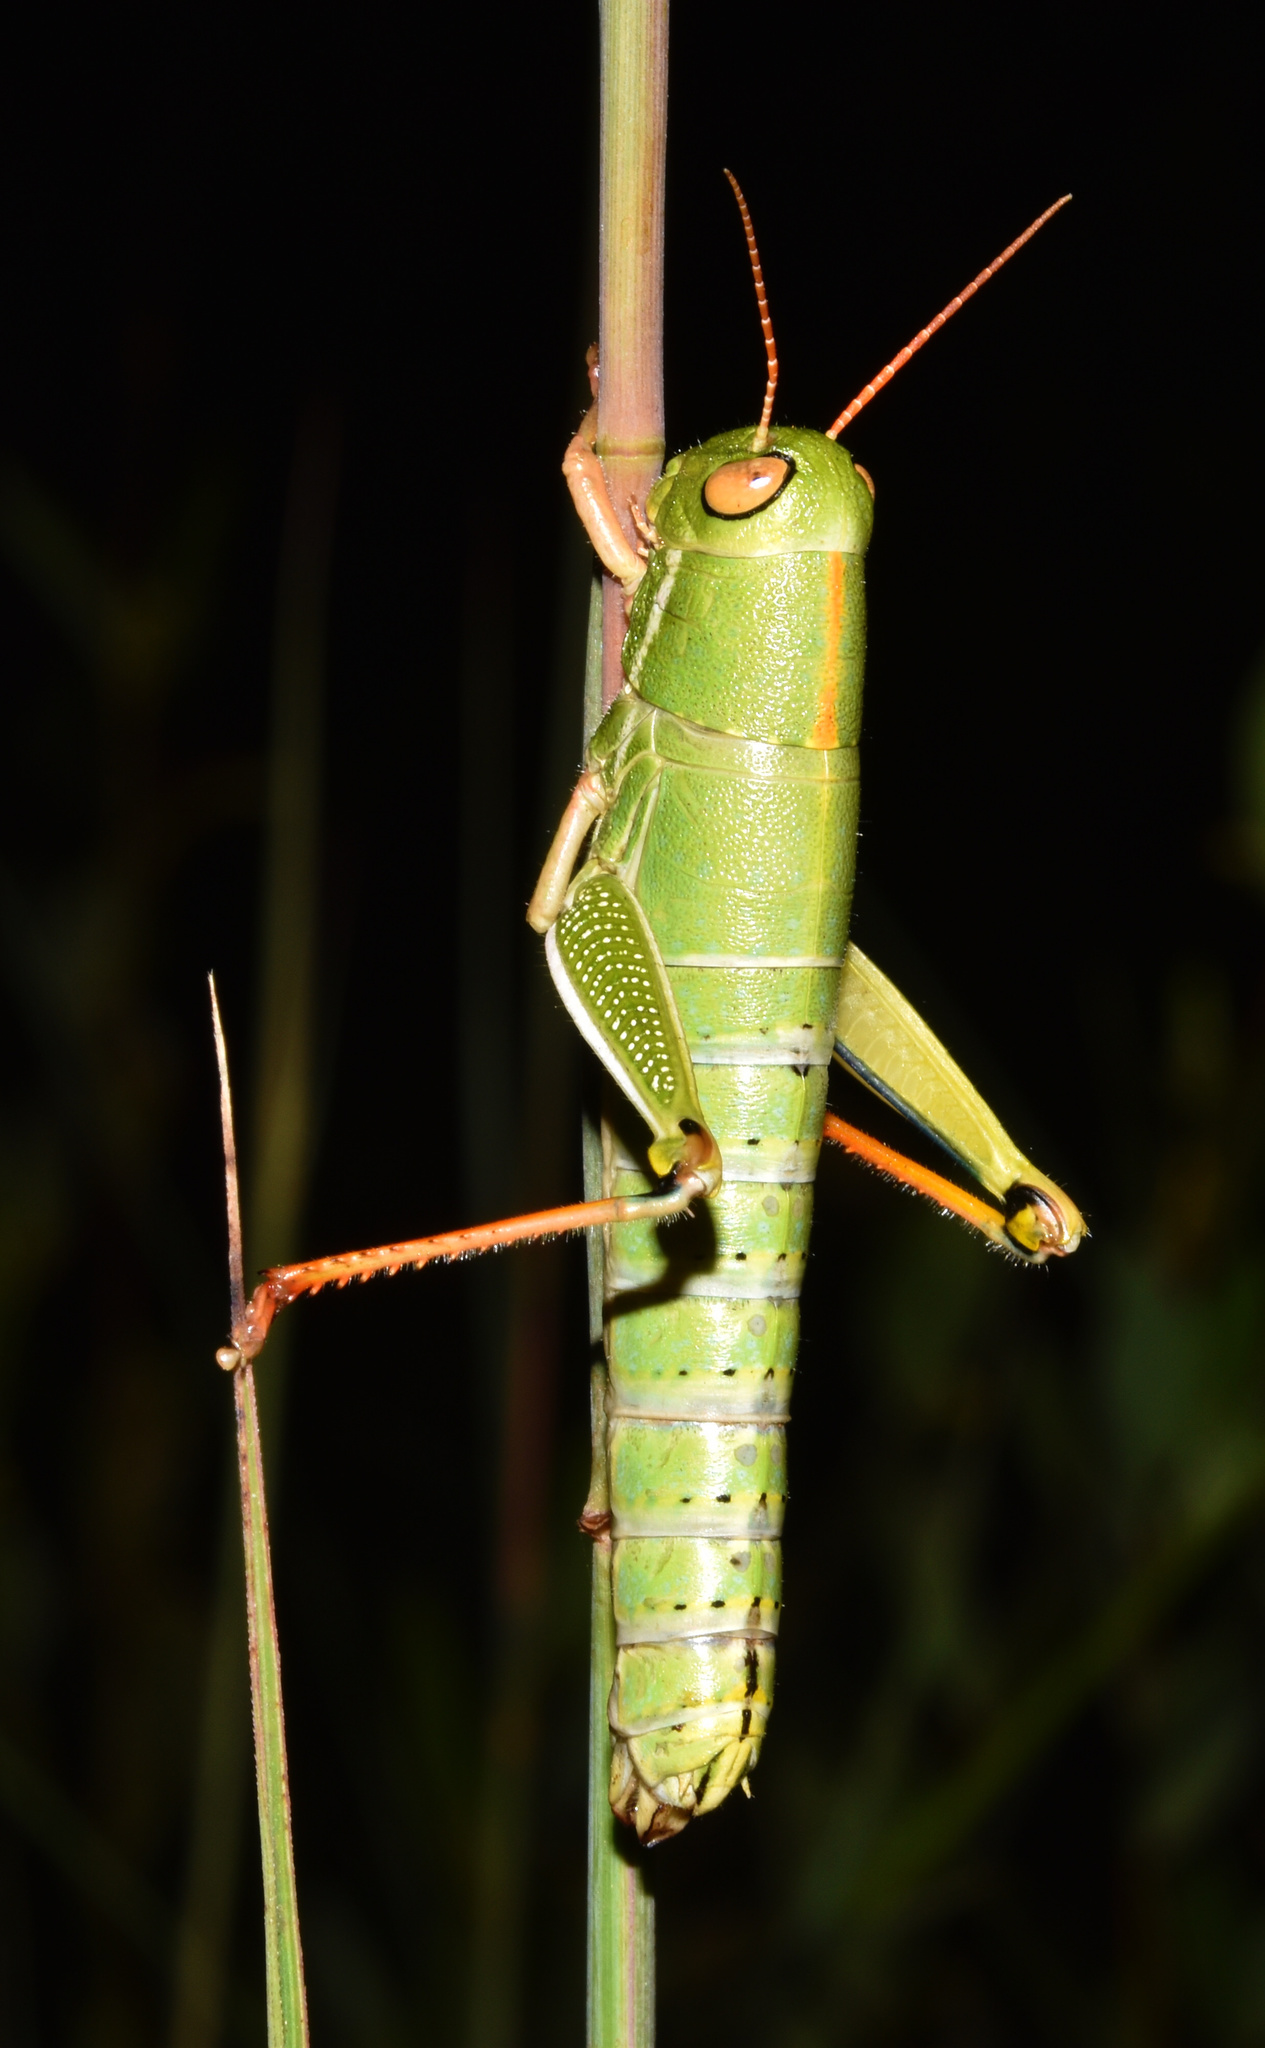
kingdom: Animalia
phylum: Arthropoda
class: Insecta
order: Orthoptera
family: Lentulidae
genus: Lentula
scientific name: Lentula obtusifrons
